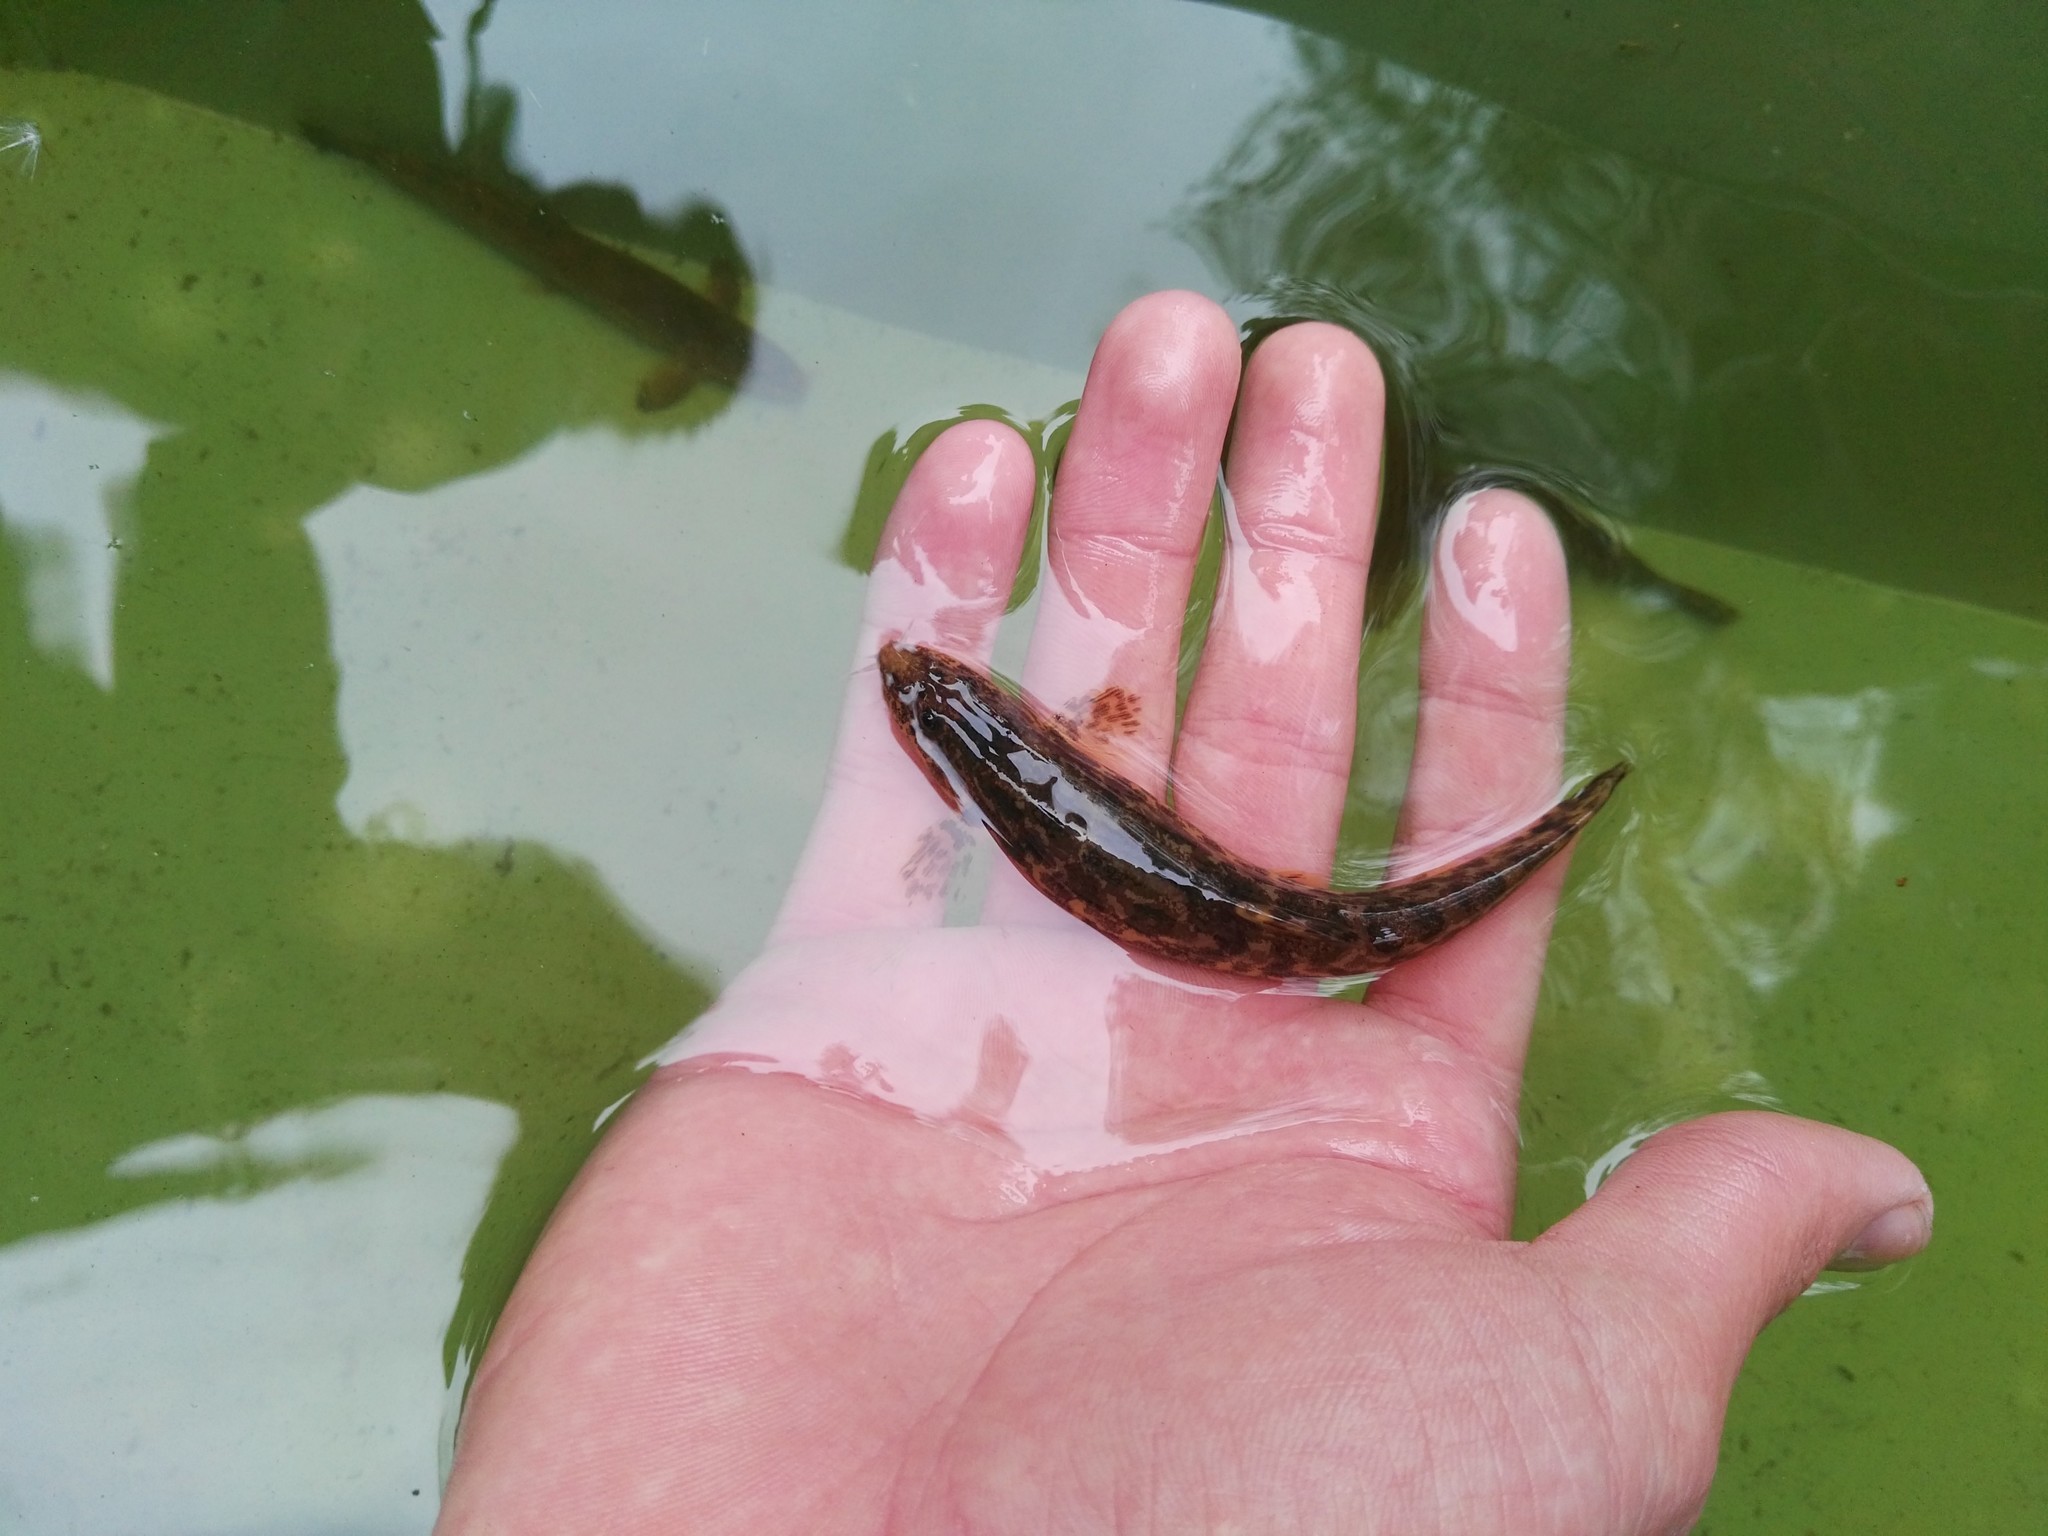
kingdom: Animalia
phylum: Chordata
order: Cypriniformes
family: Nemacheilidae
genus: Barbatula
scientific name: Barbatula barbatula
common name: Stone loach
